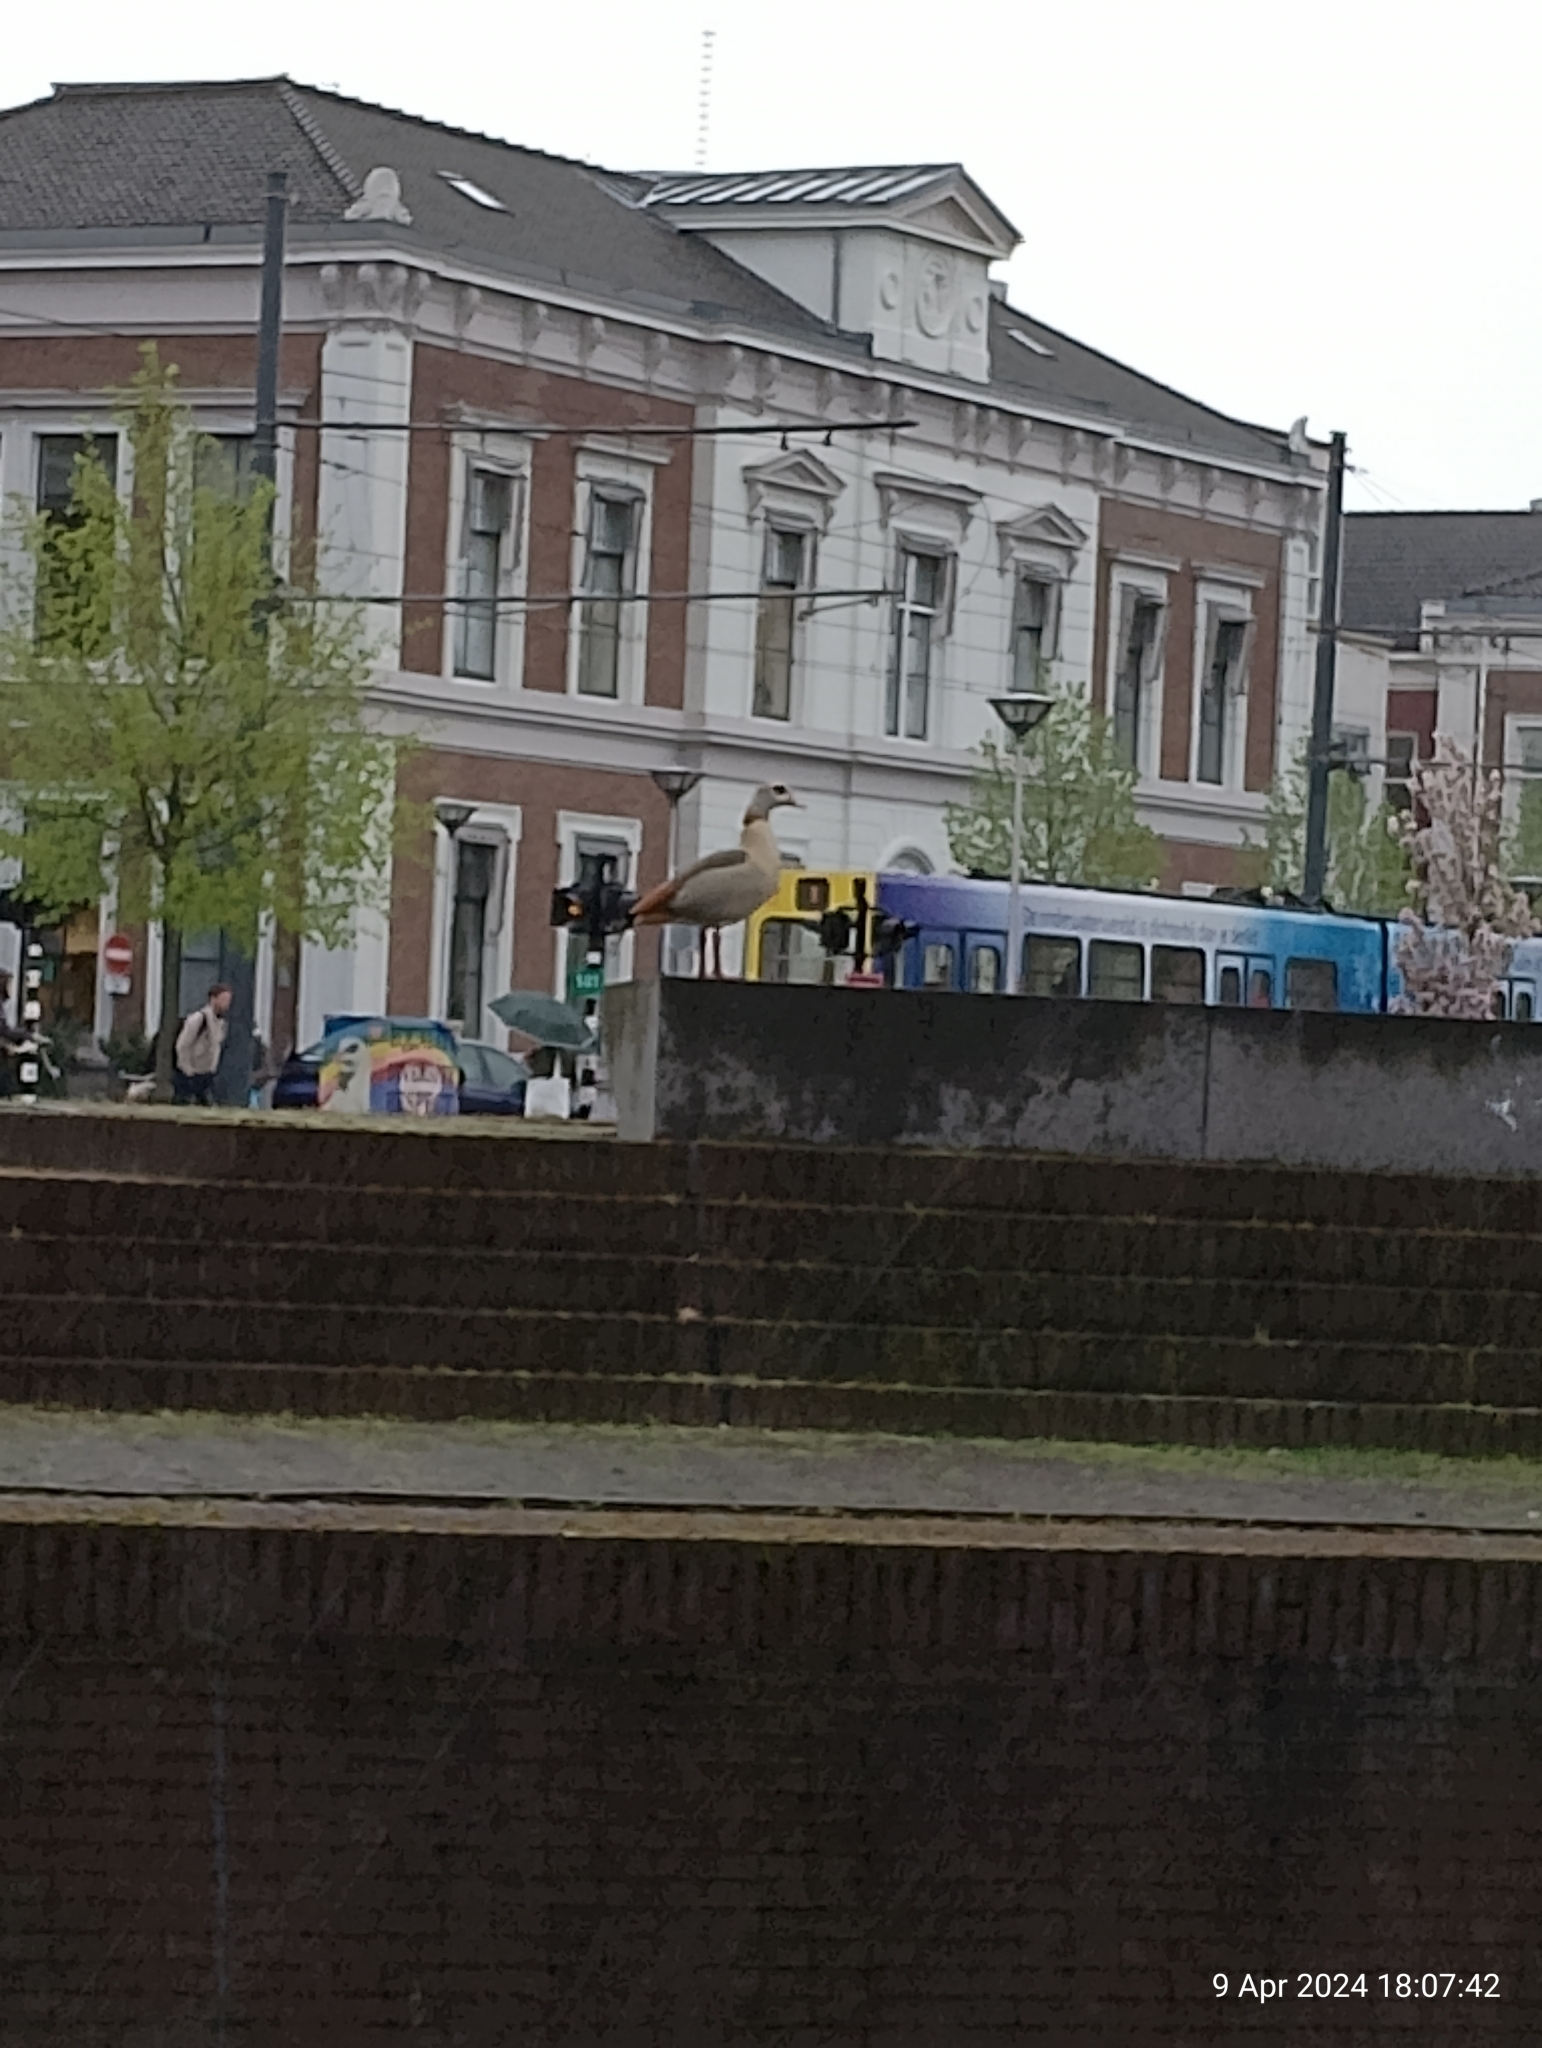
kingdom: Animalia
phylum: Chordata
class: Aves
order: Anseriformes
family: Anatidae
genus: Alopochen
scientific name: Alopochen aegyptiaca
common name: Egyptian goose
